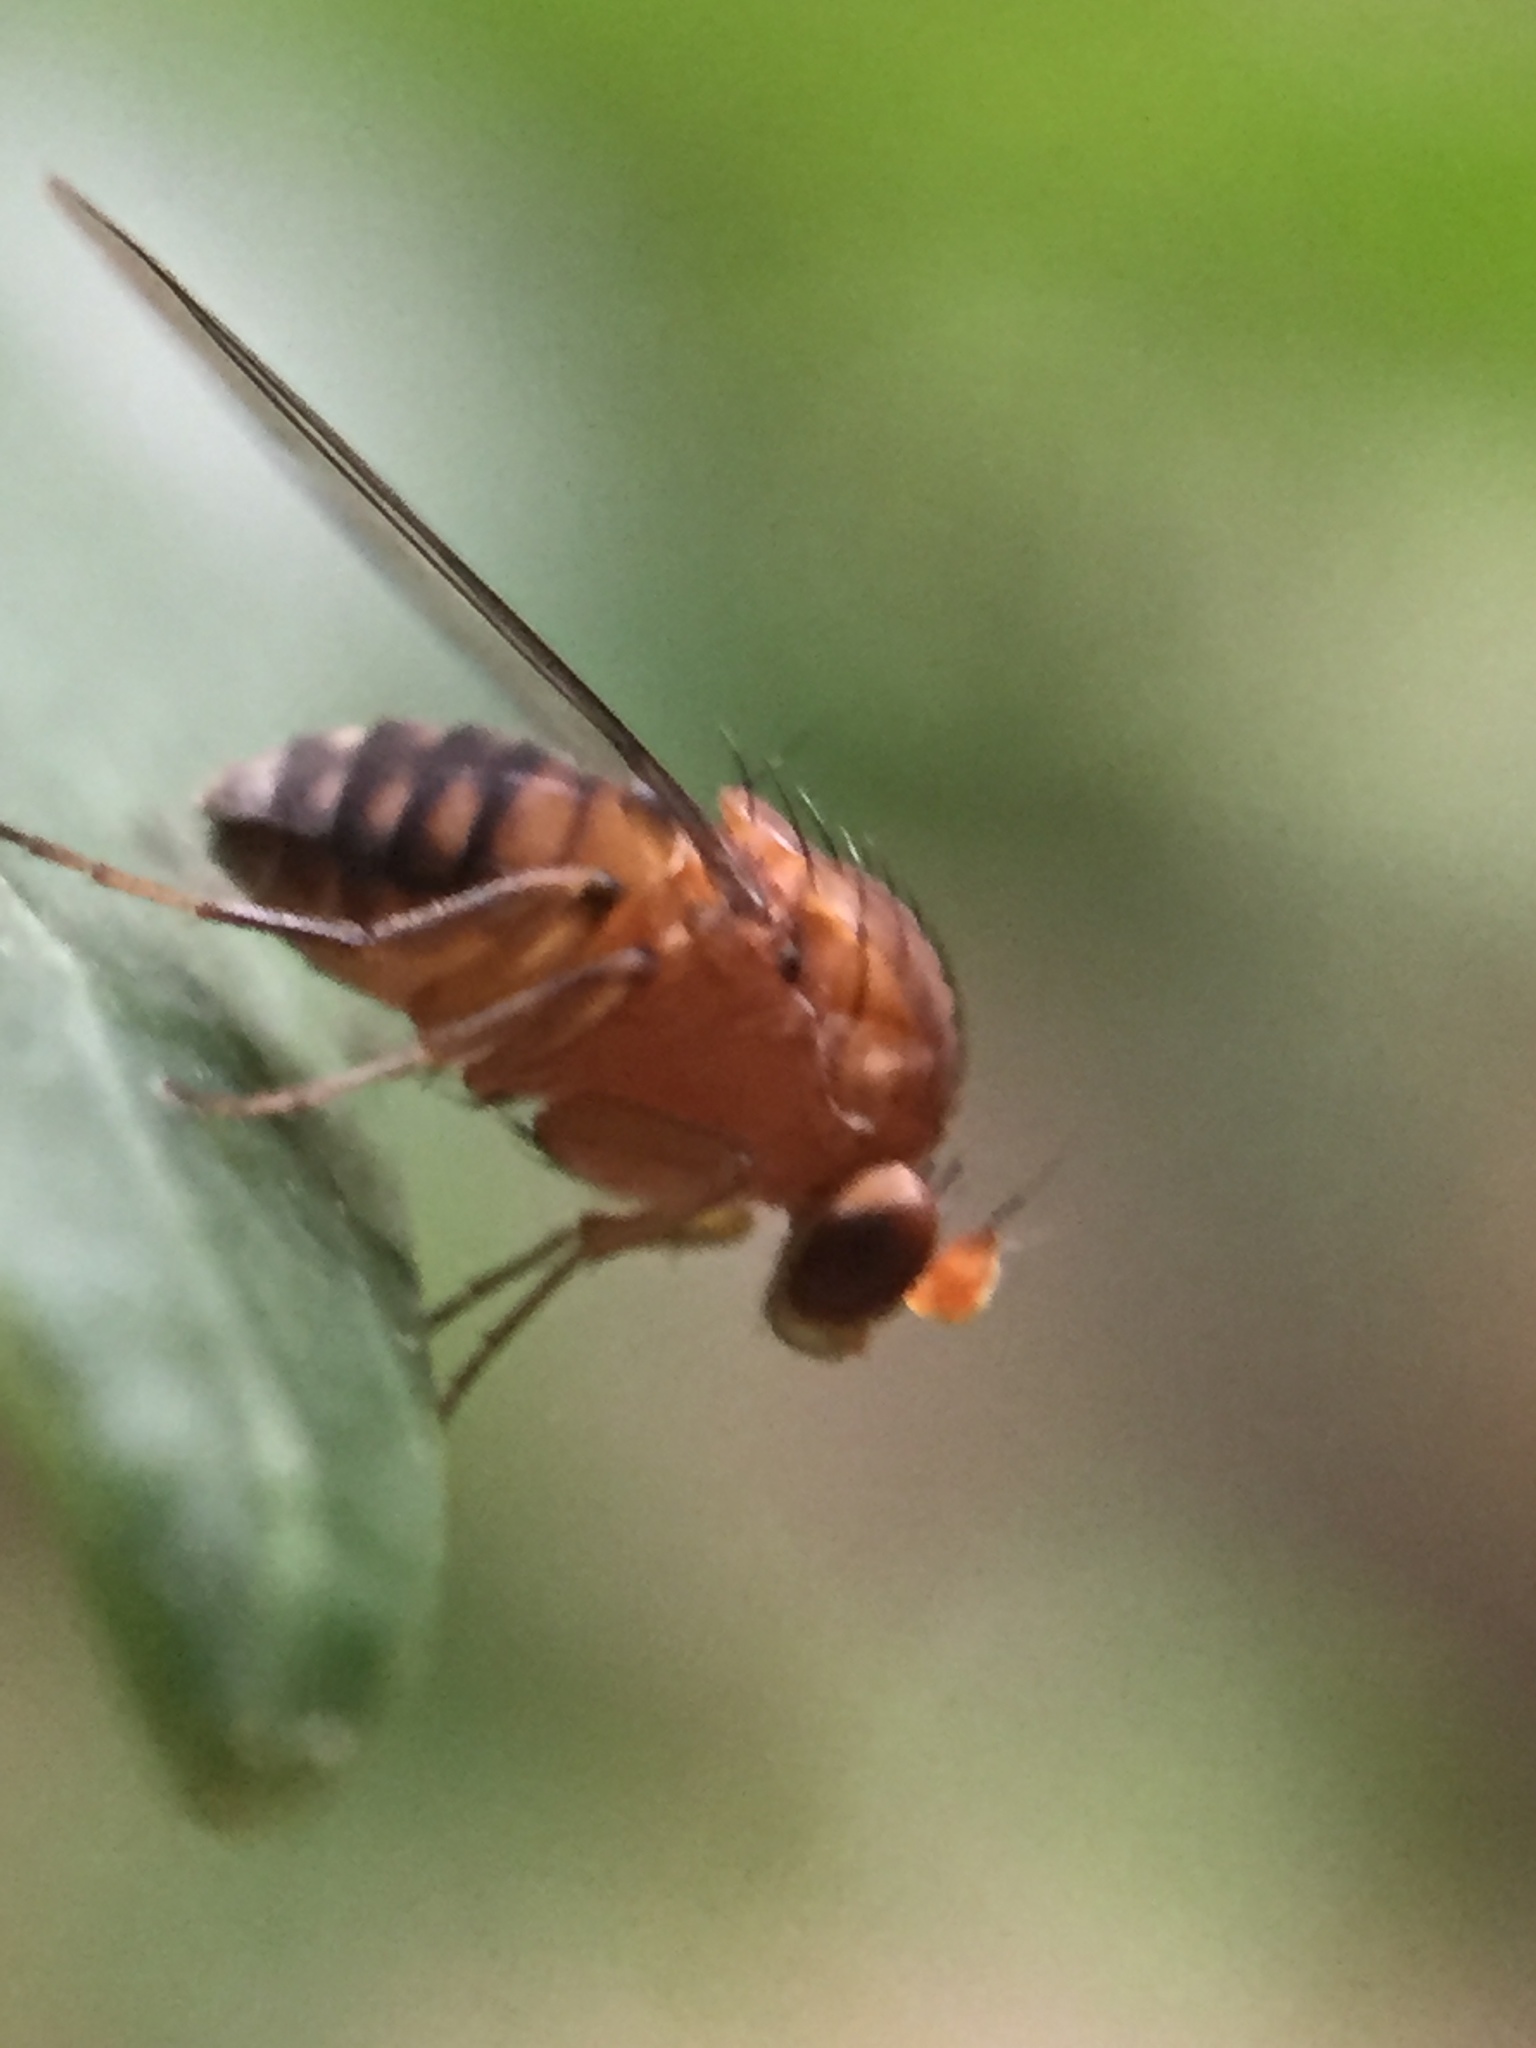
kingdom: Animalia
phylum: Arthropoda
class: Insecta
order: Diptera
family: Phoridae
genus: Sciadocera
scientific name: Sciadocera rufomaculata
